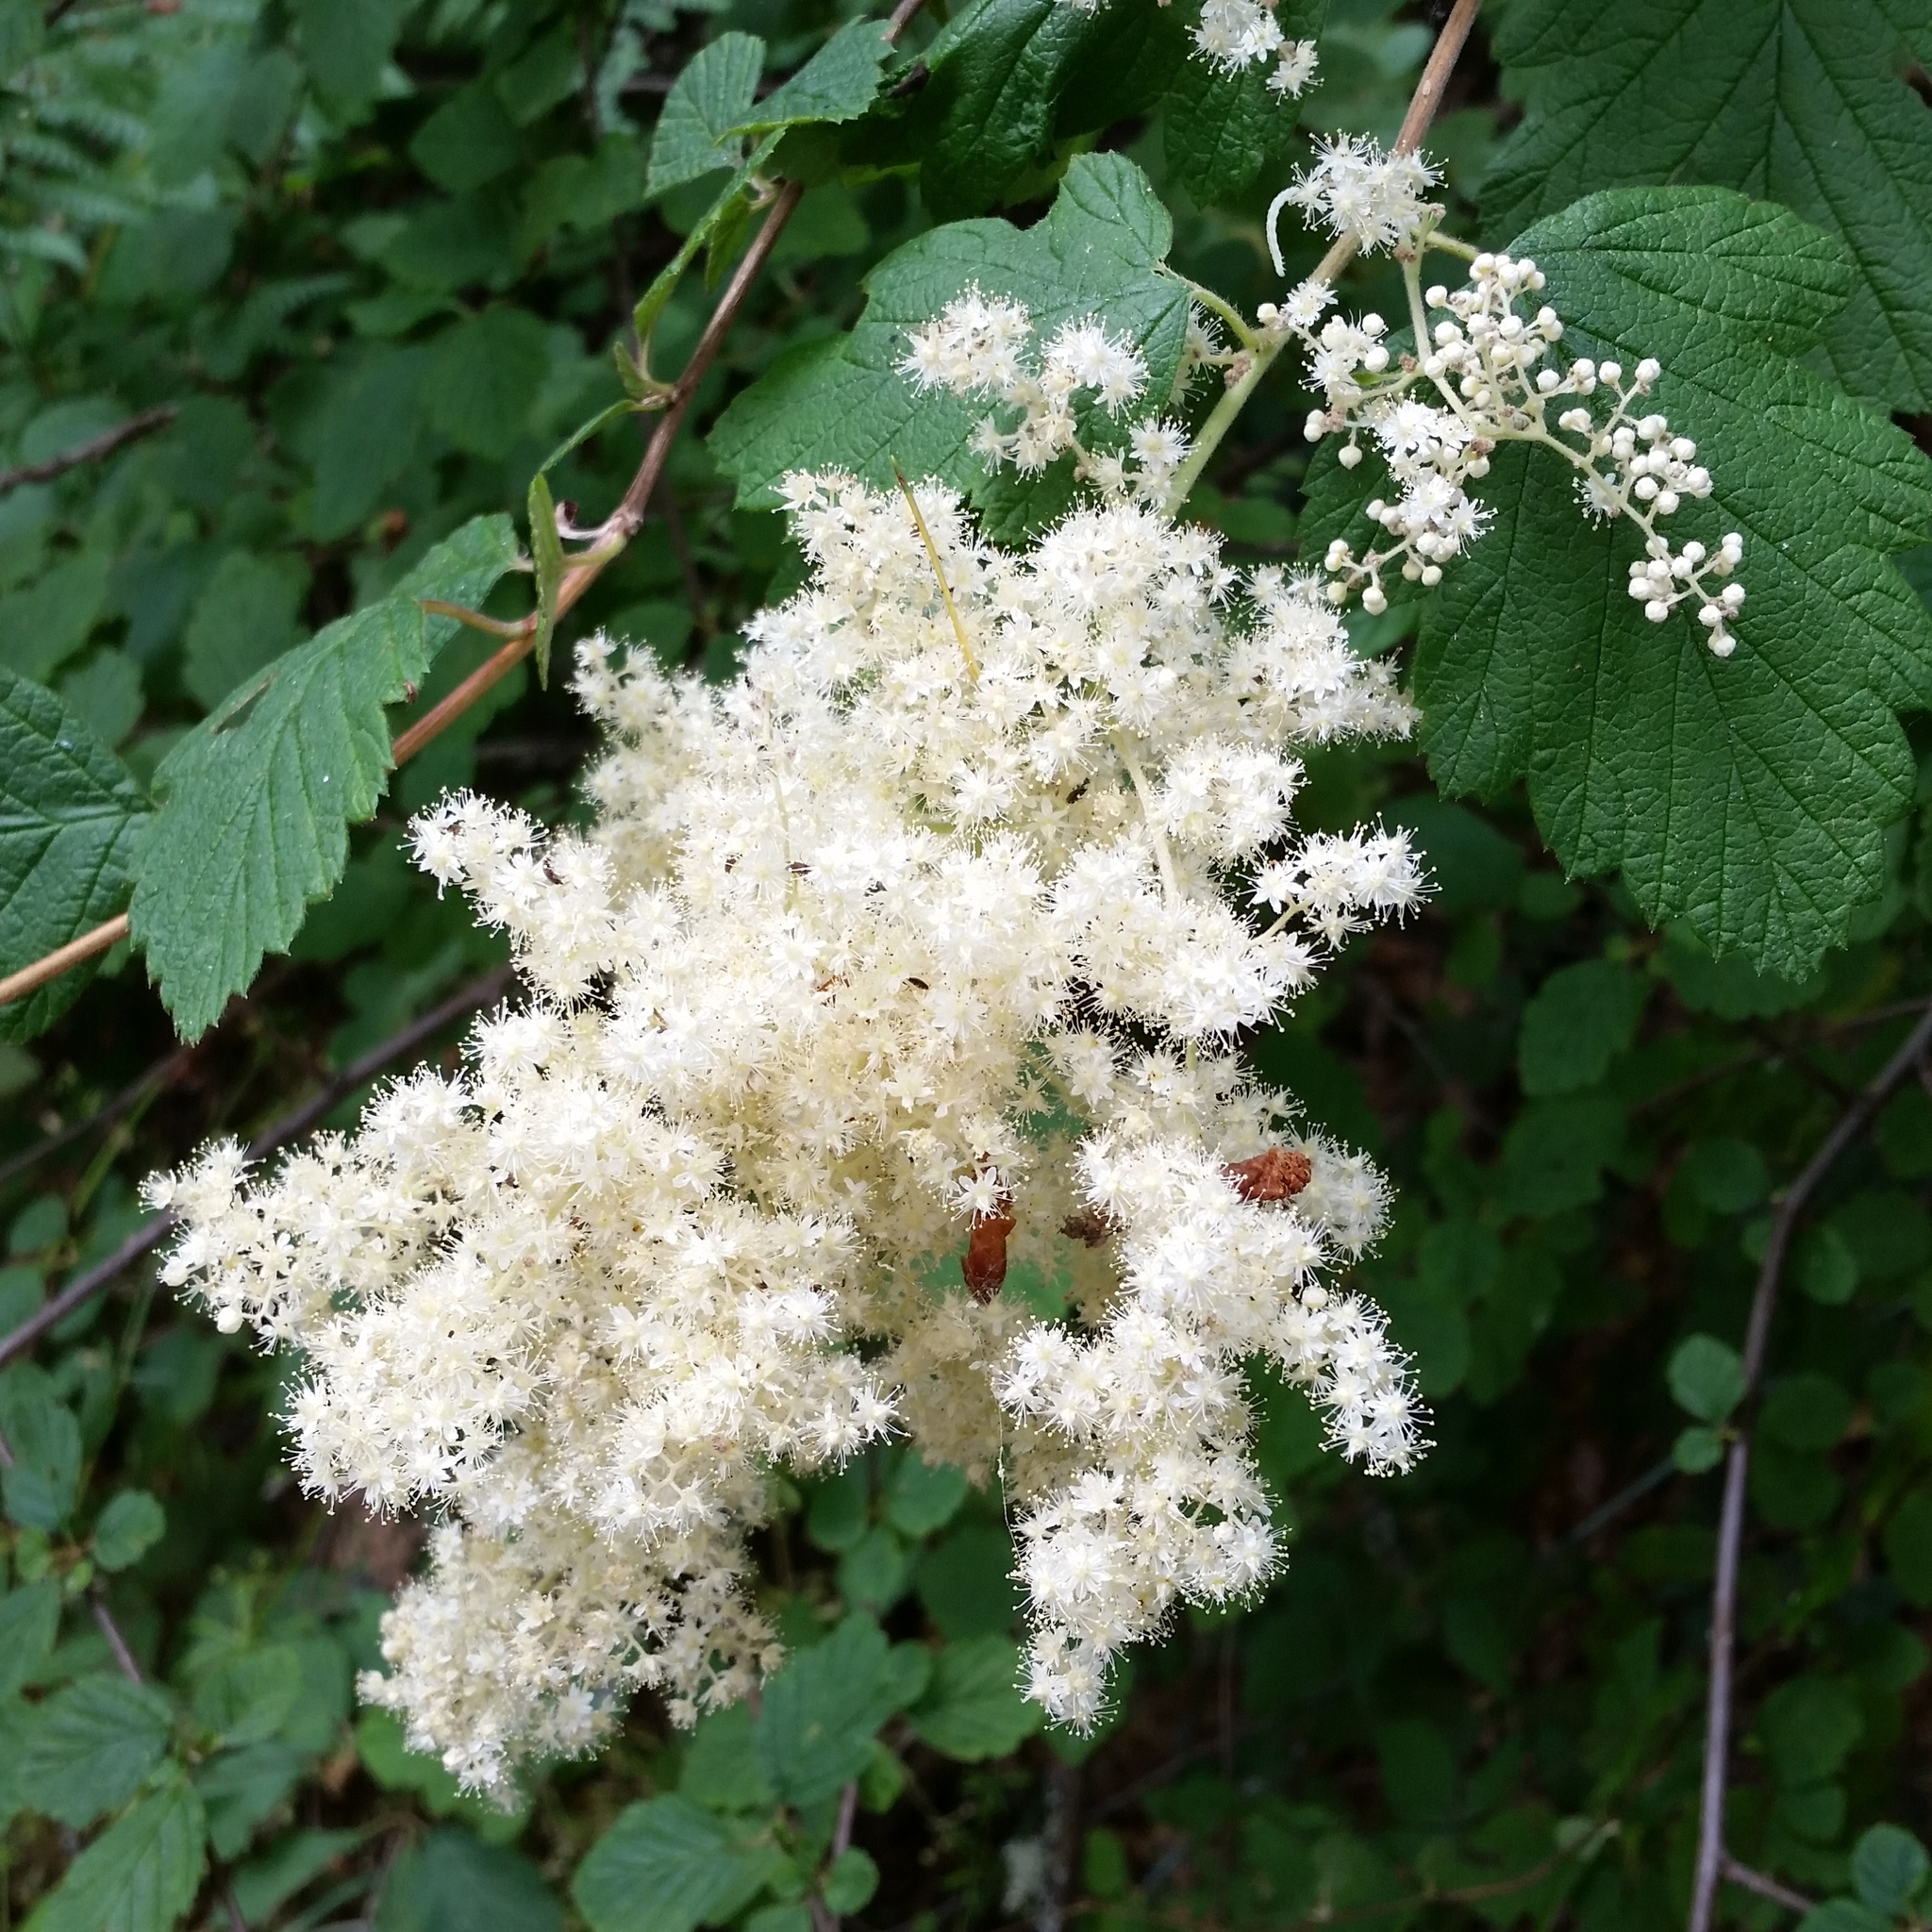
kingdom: Plantae
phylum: Tracheophyta
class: Magnoliopsida
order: Rosales
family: Rosaceae
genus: Holodiscus
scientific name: Holodiscus discolor
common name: Oceanspray
